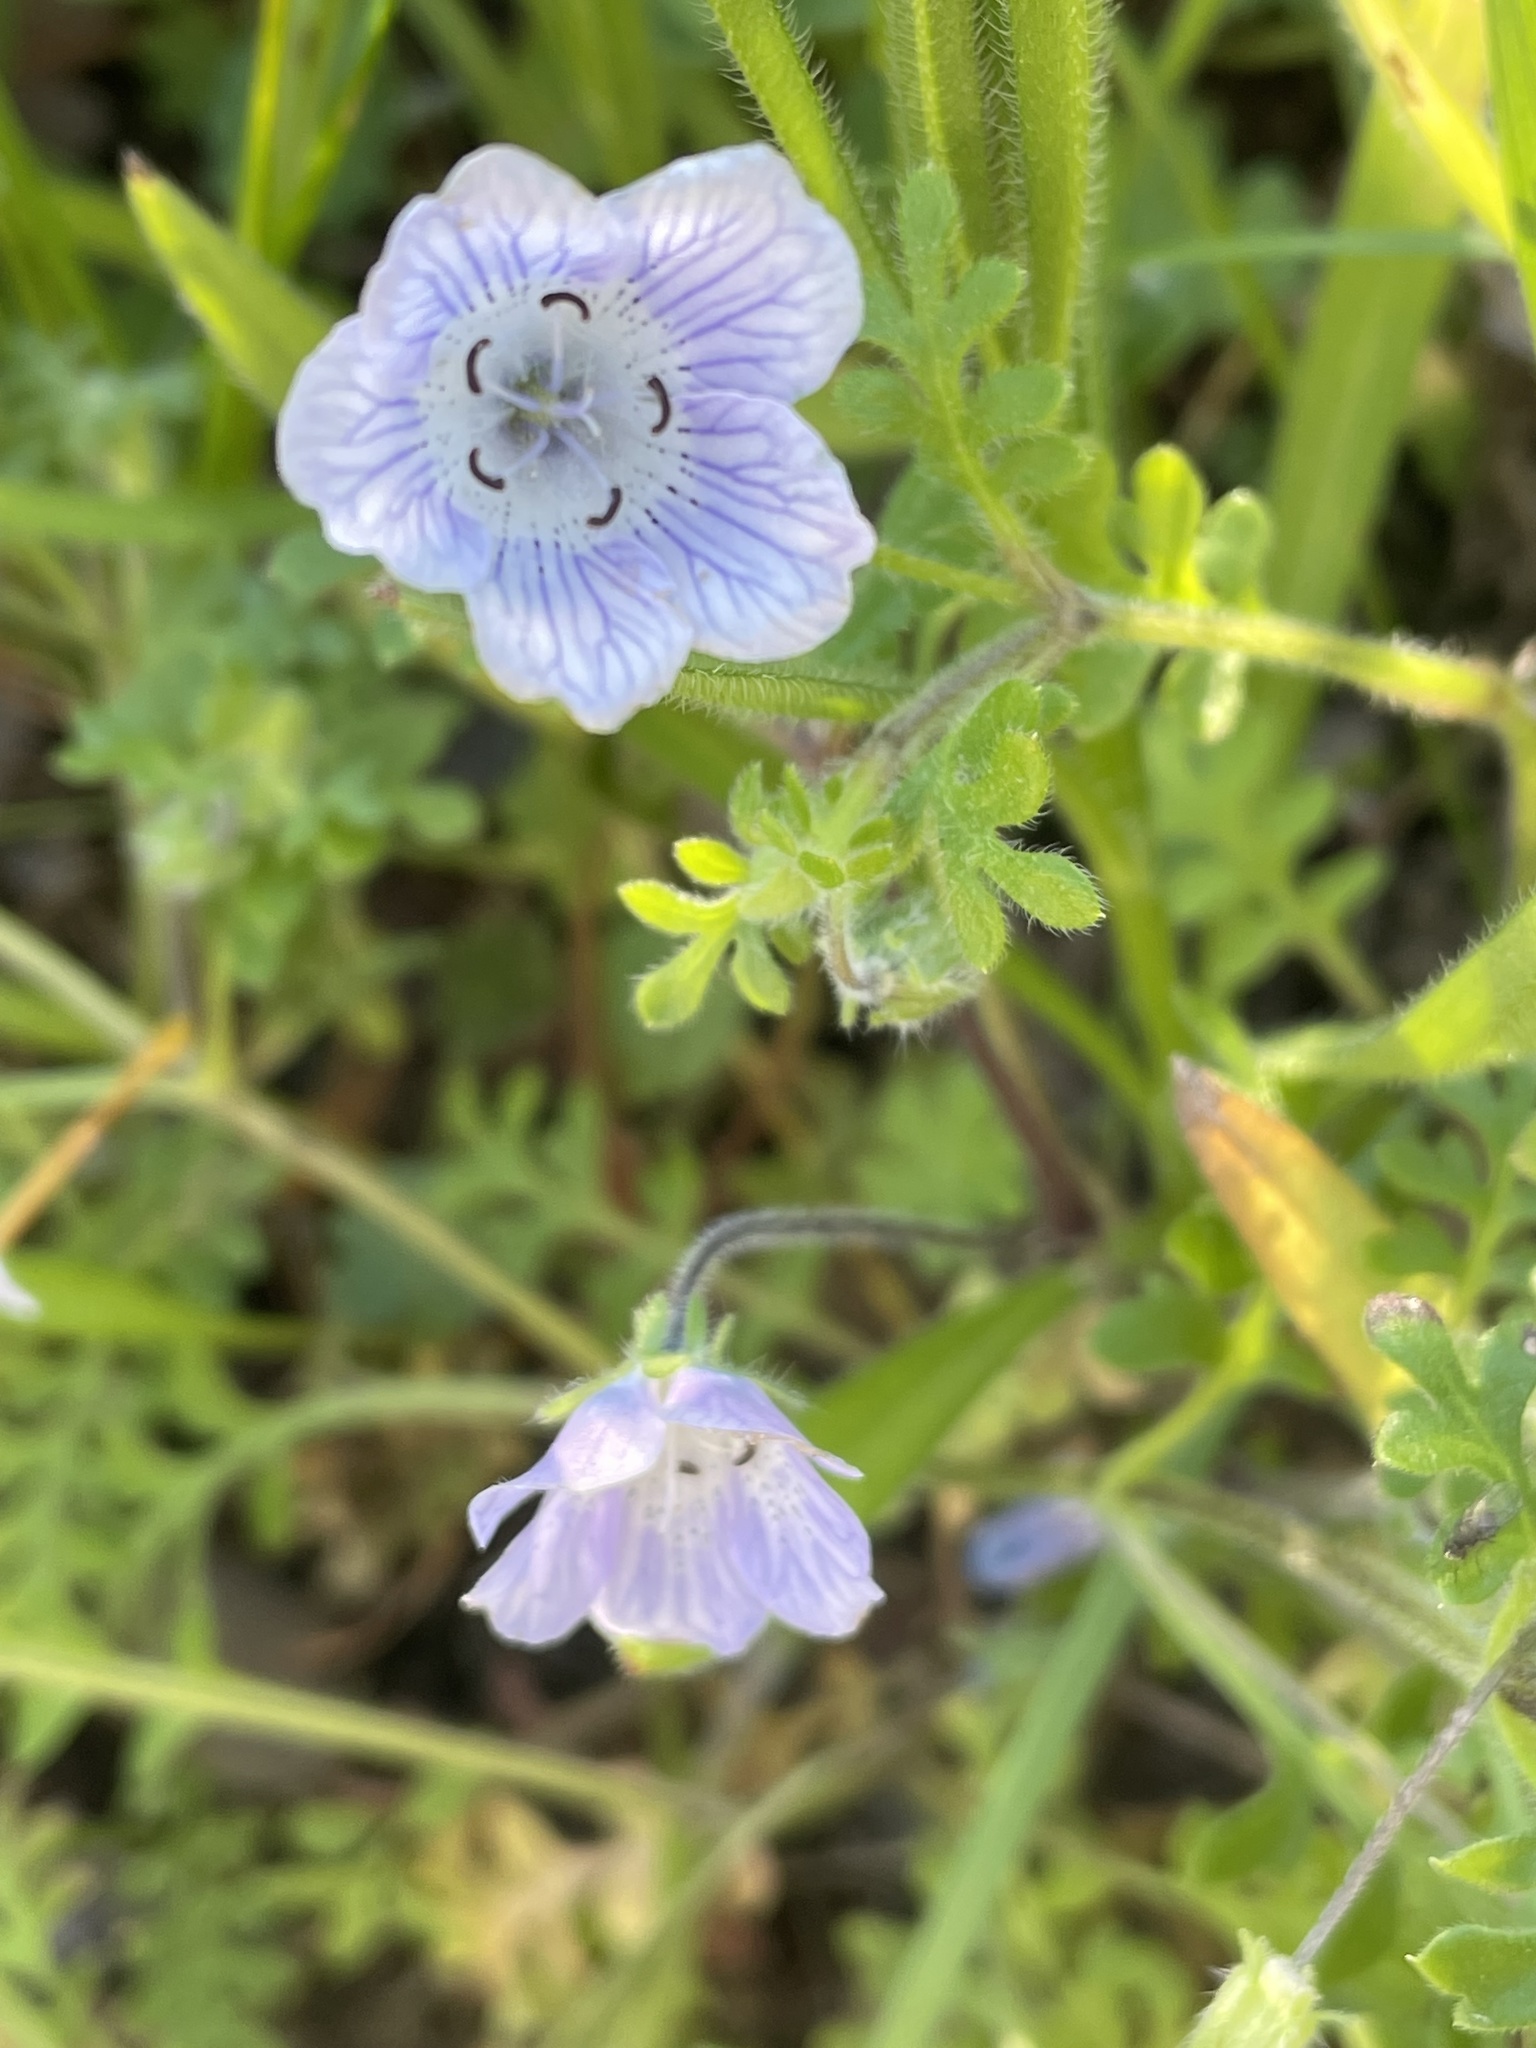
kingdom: Plantae
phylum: Tracheophyta
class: Magnoliopsida
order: Boraginales
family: Hydrophyllaceae
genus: Nemophila
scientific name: Nemophila menziesii
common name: Baby's-blue-eyes
